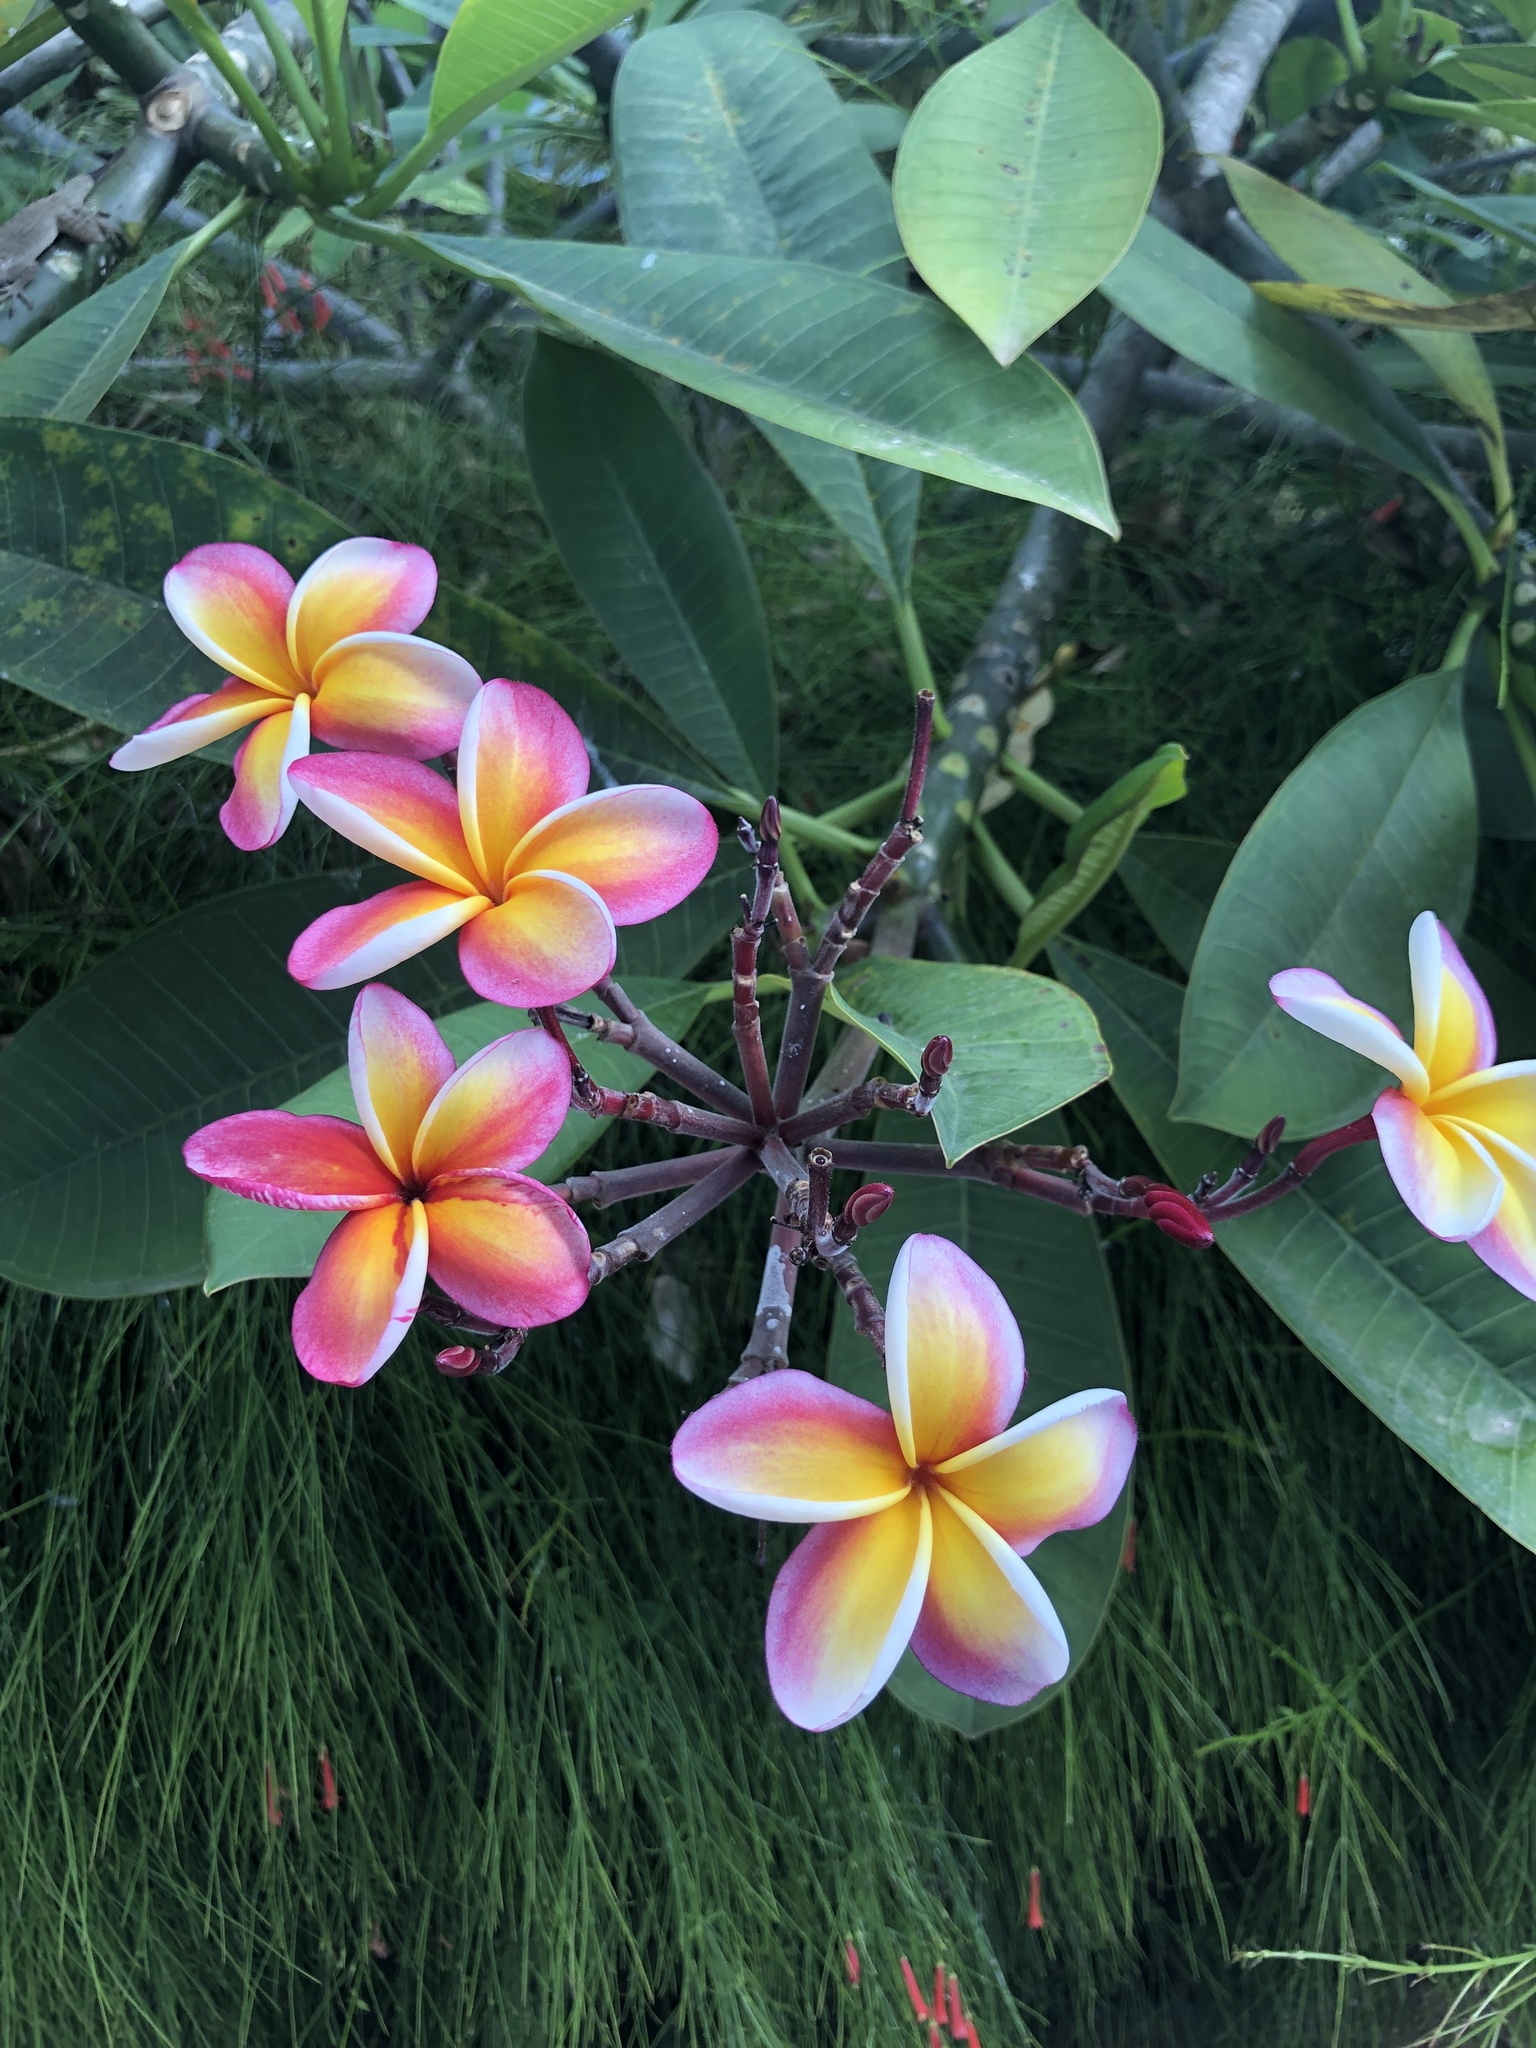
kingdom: Plantae
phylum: Tracheophyta
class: Magnoliopsida
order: Gentianales
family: Apocynaceae
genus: Plumeria
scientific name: Plumeria rubra
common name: Pagoda-tree
